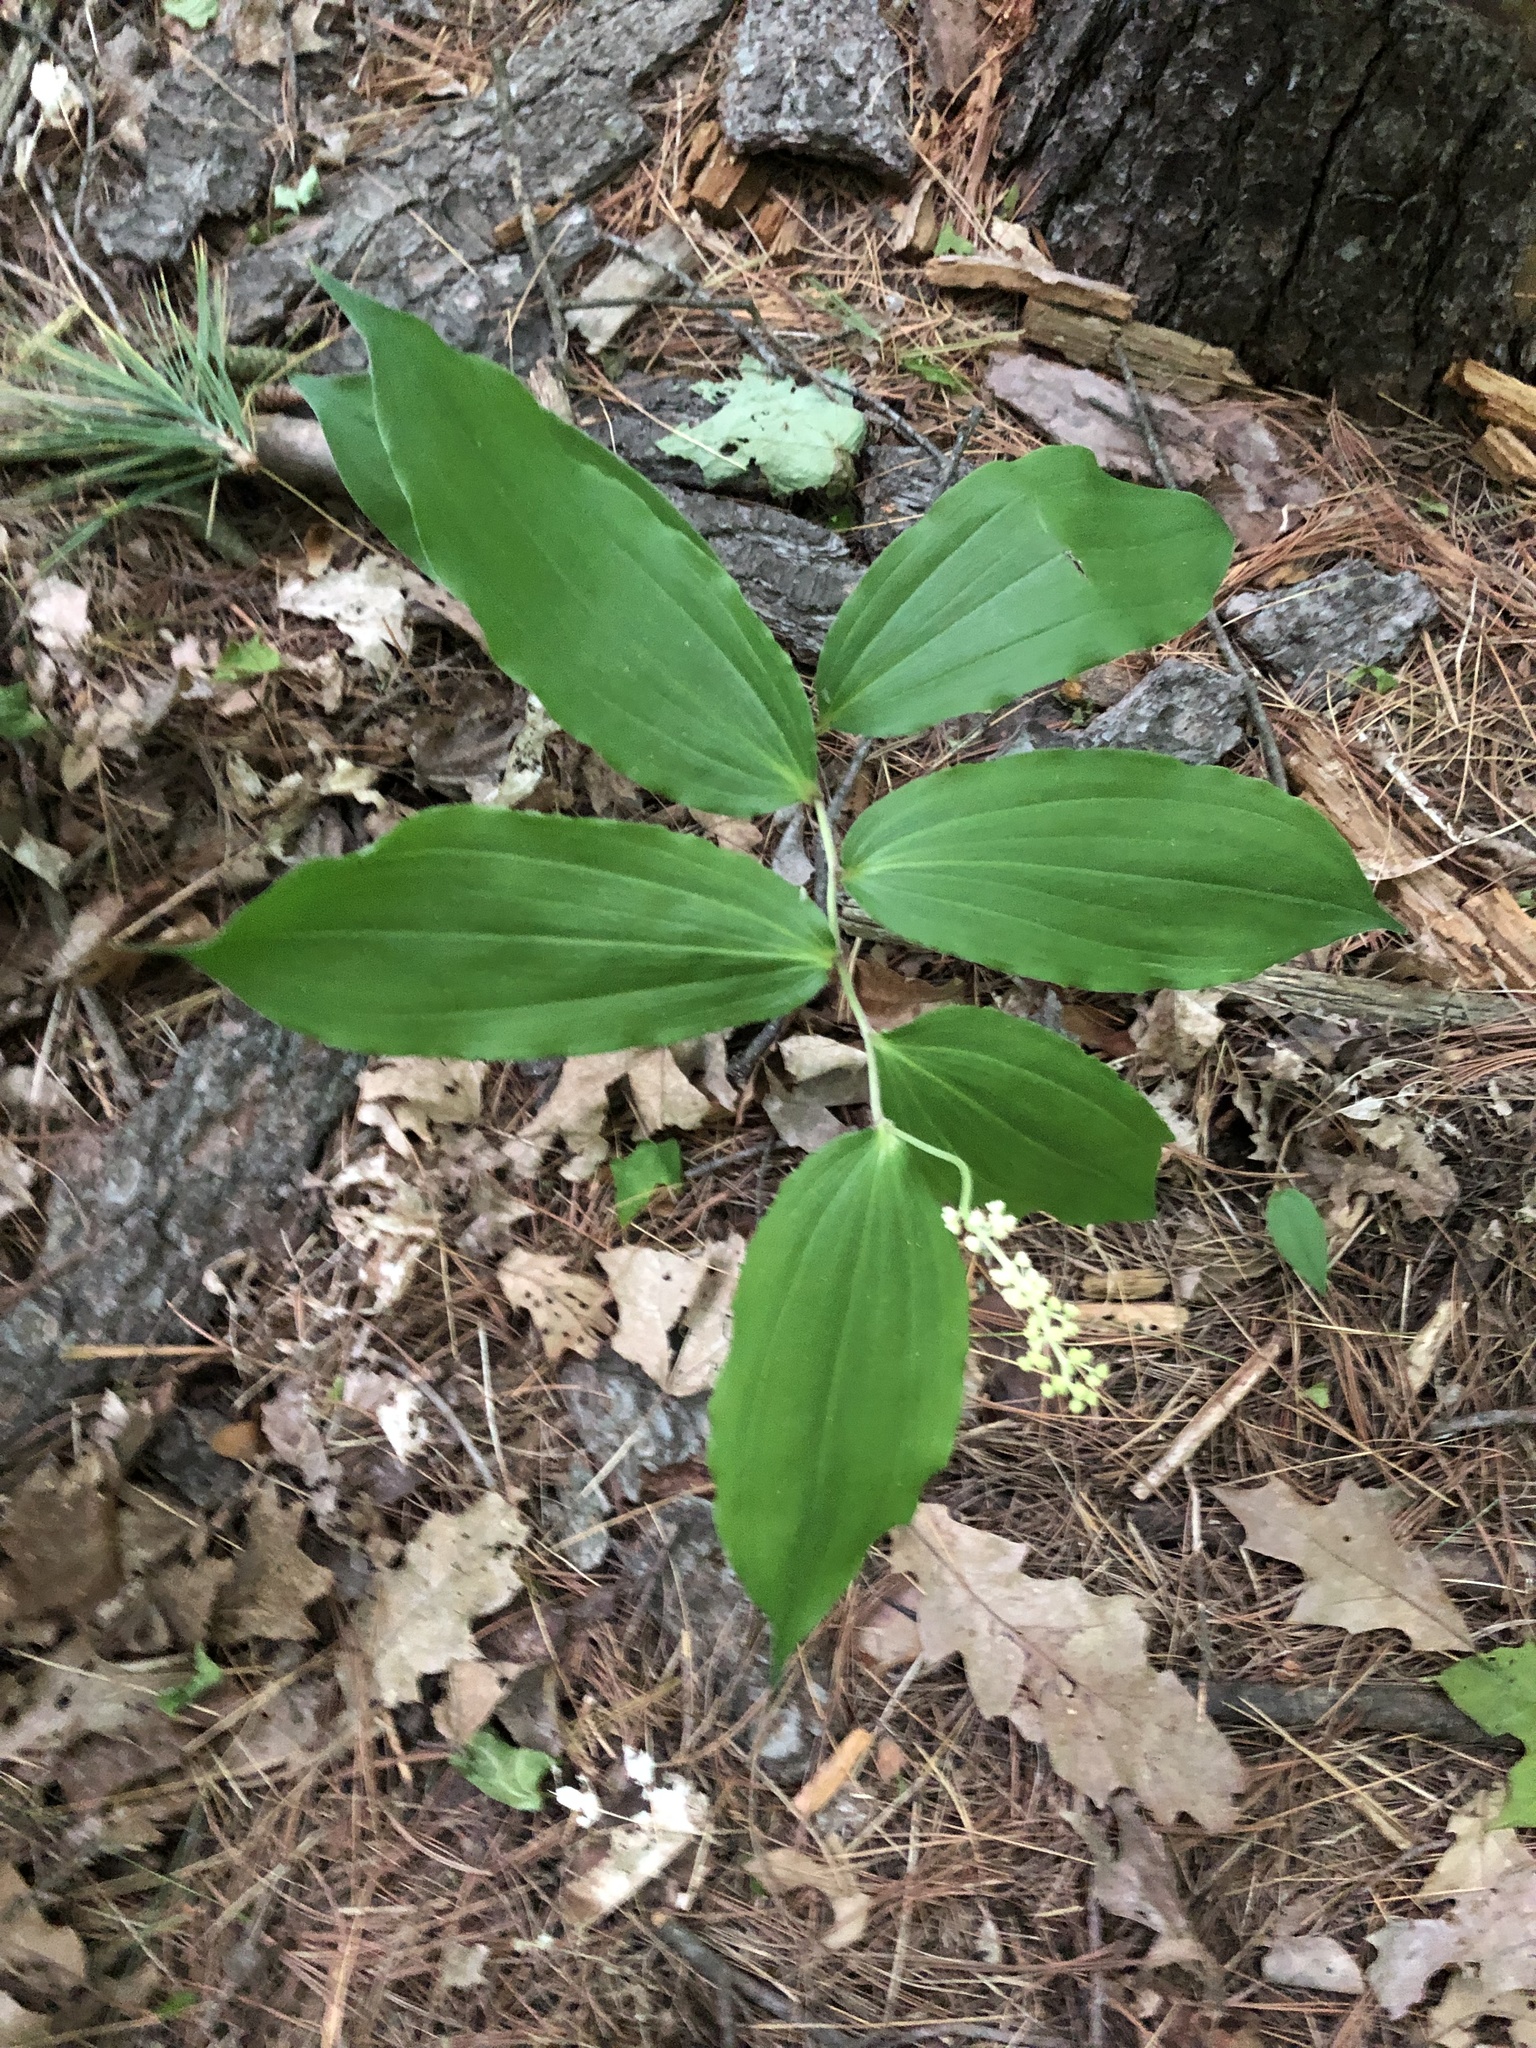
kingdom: Plantae
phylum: Tracheophyta
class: Liliopsida
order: Asparagales
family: Asparagaceae
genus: Maianthemum
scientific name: Maianthemum racemosum
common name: False spikenard
